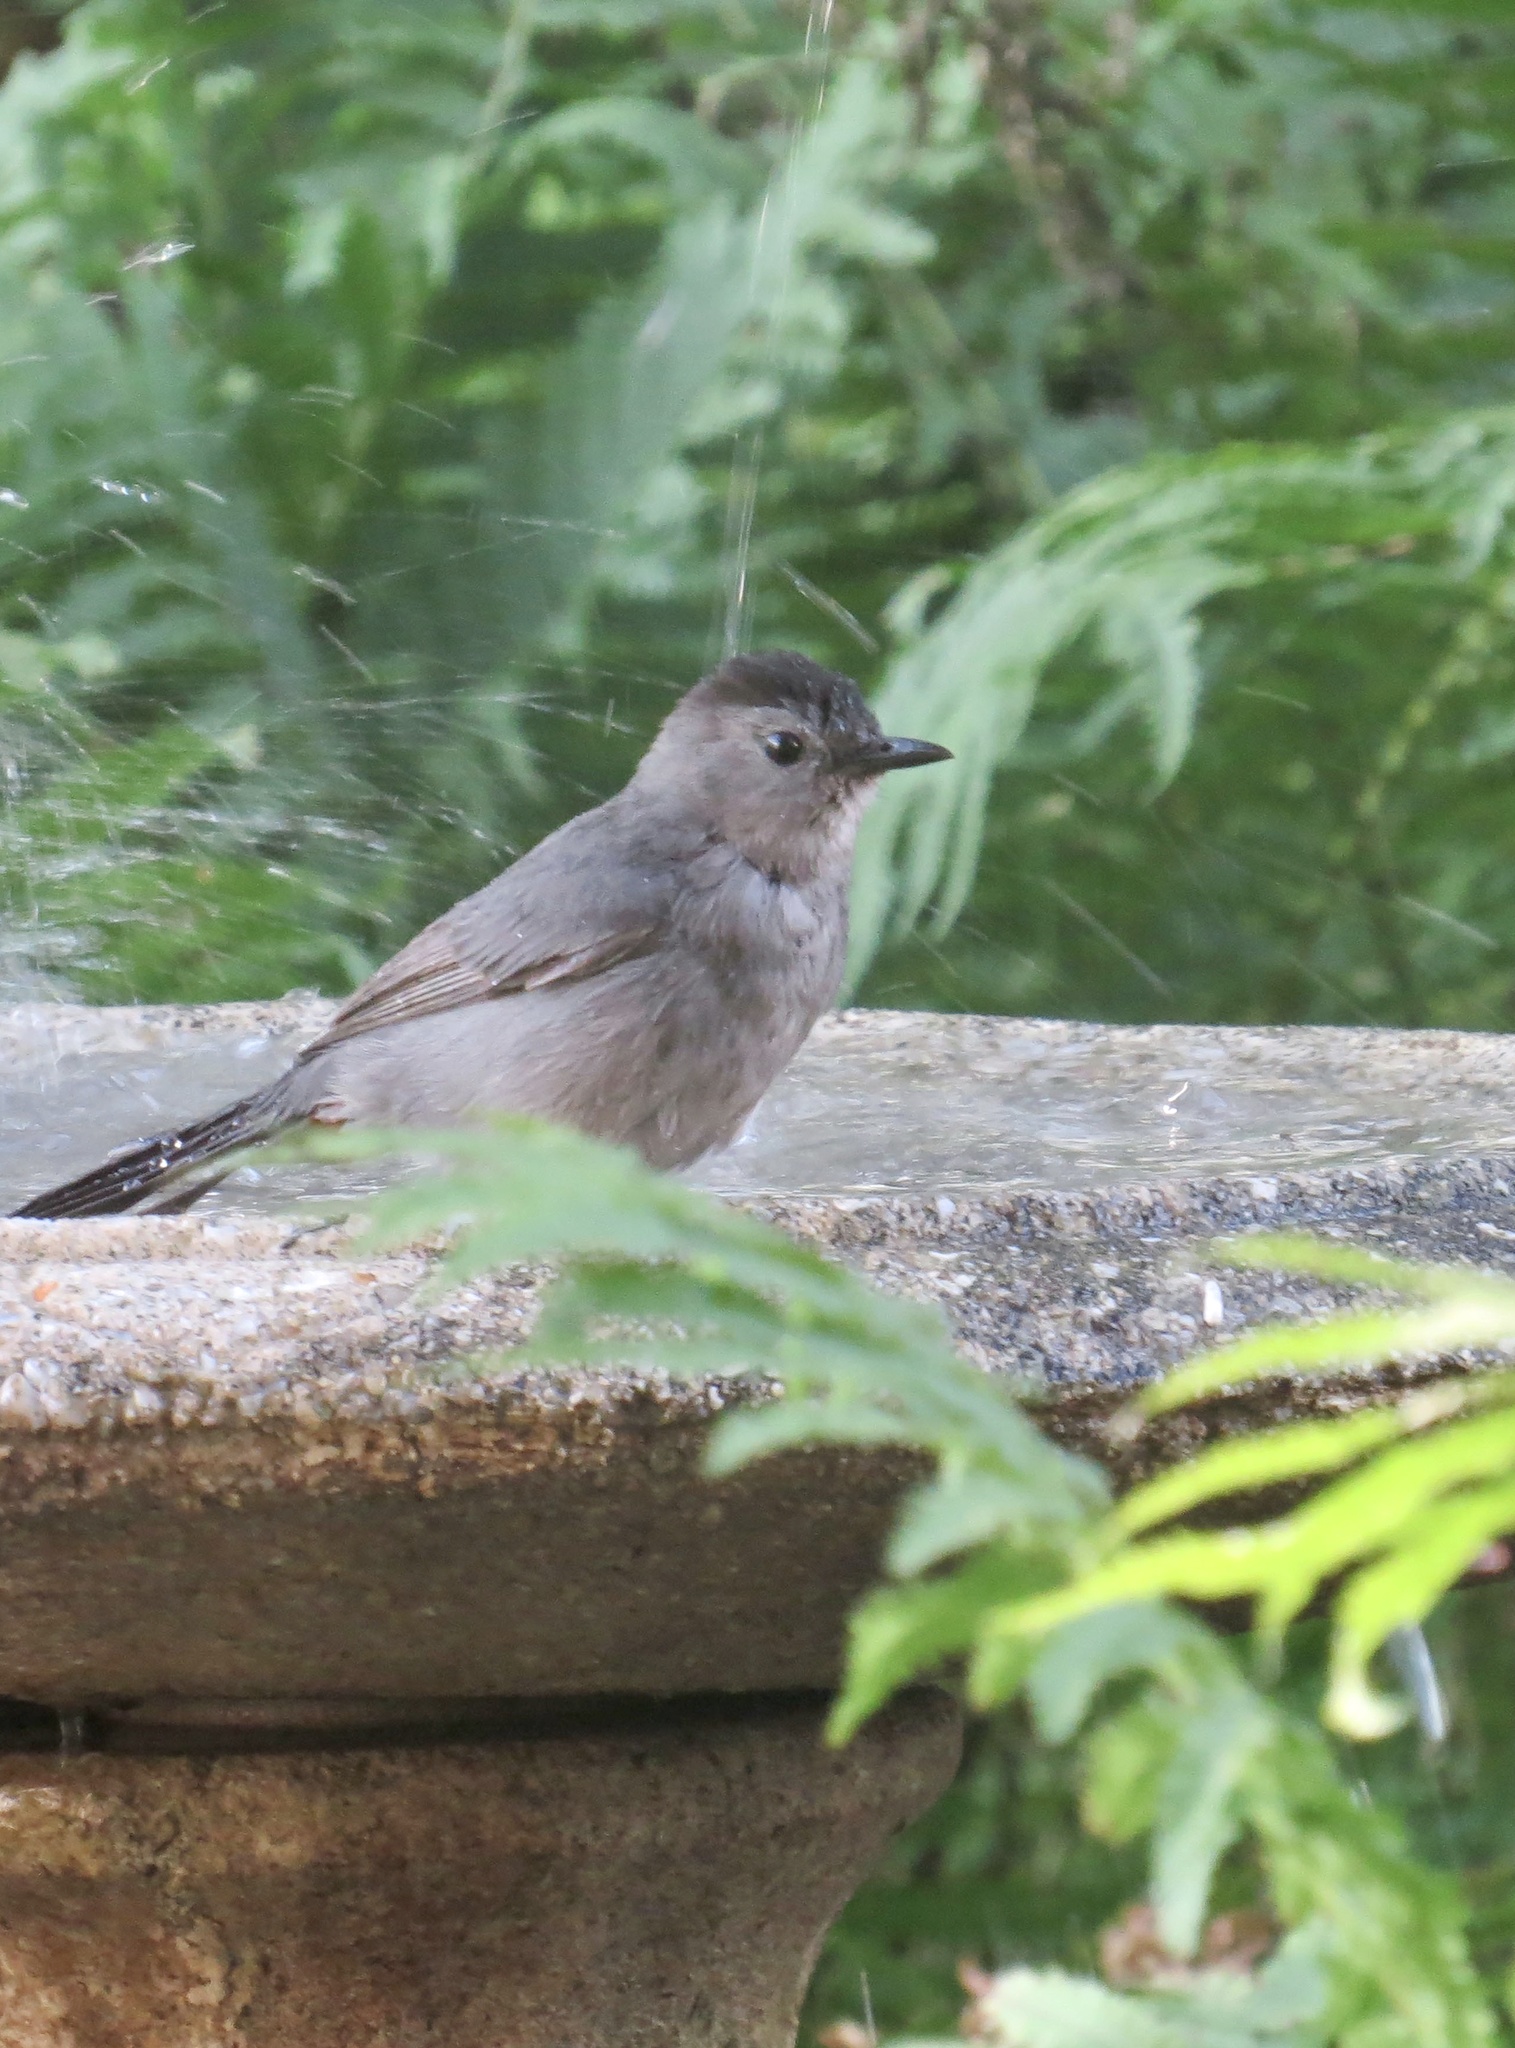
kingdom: Animalia
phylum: Chordata
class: Aves
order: Passeriformes
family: Mimidae
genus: Dumetella
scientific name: Dumetella carolinensis
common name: Gray catbird
